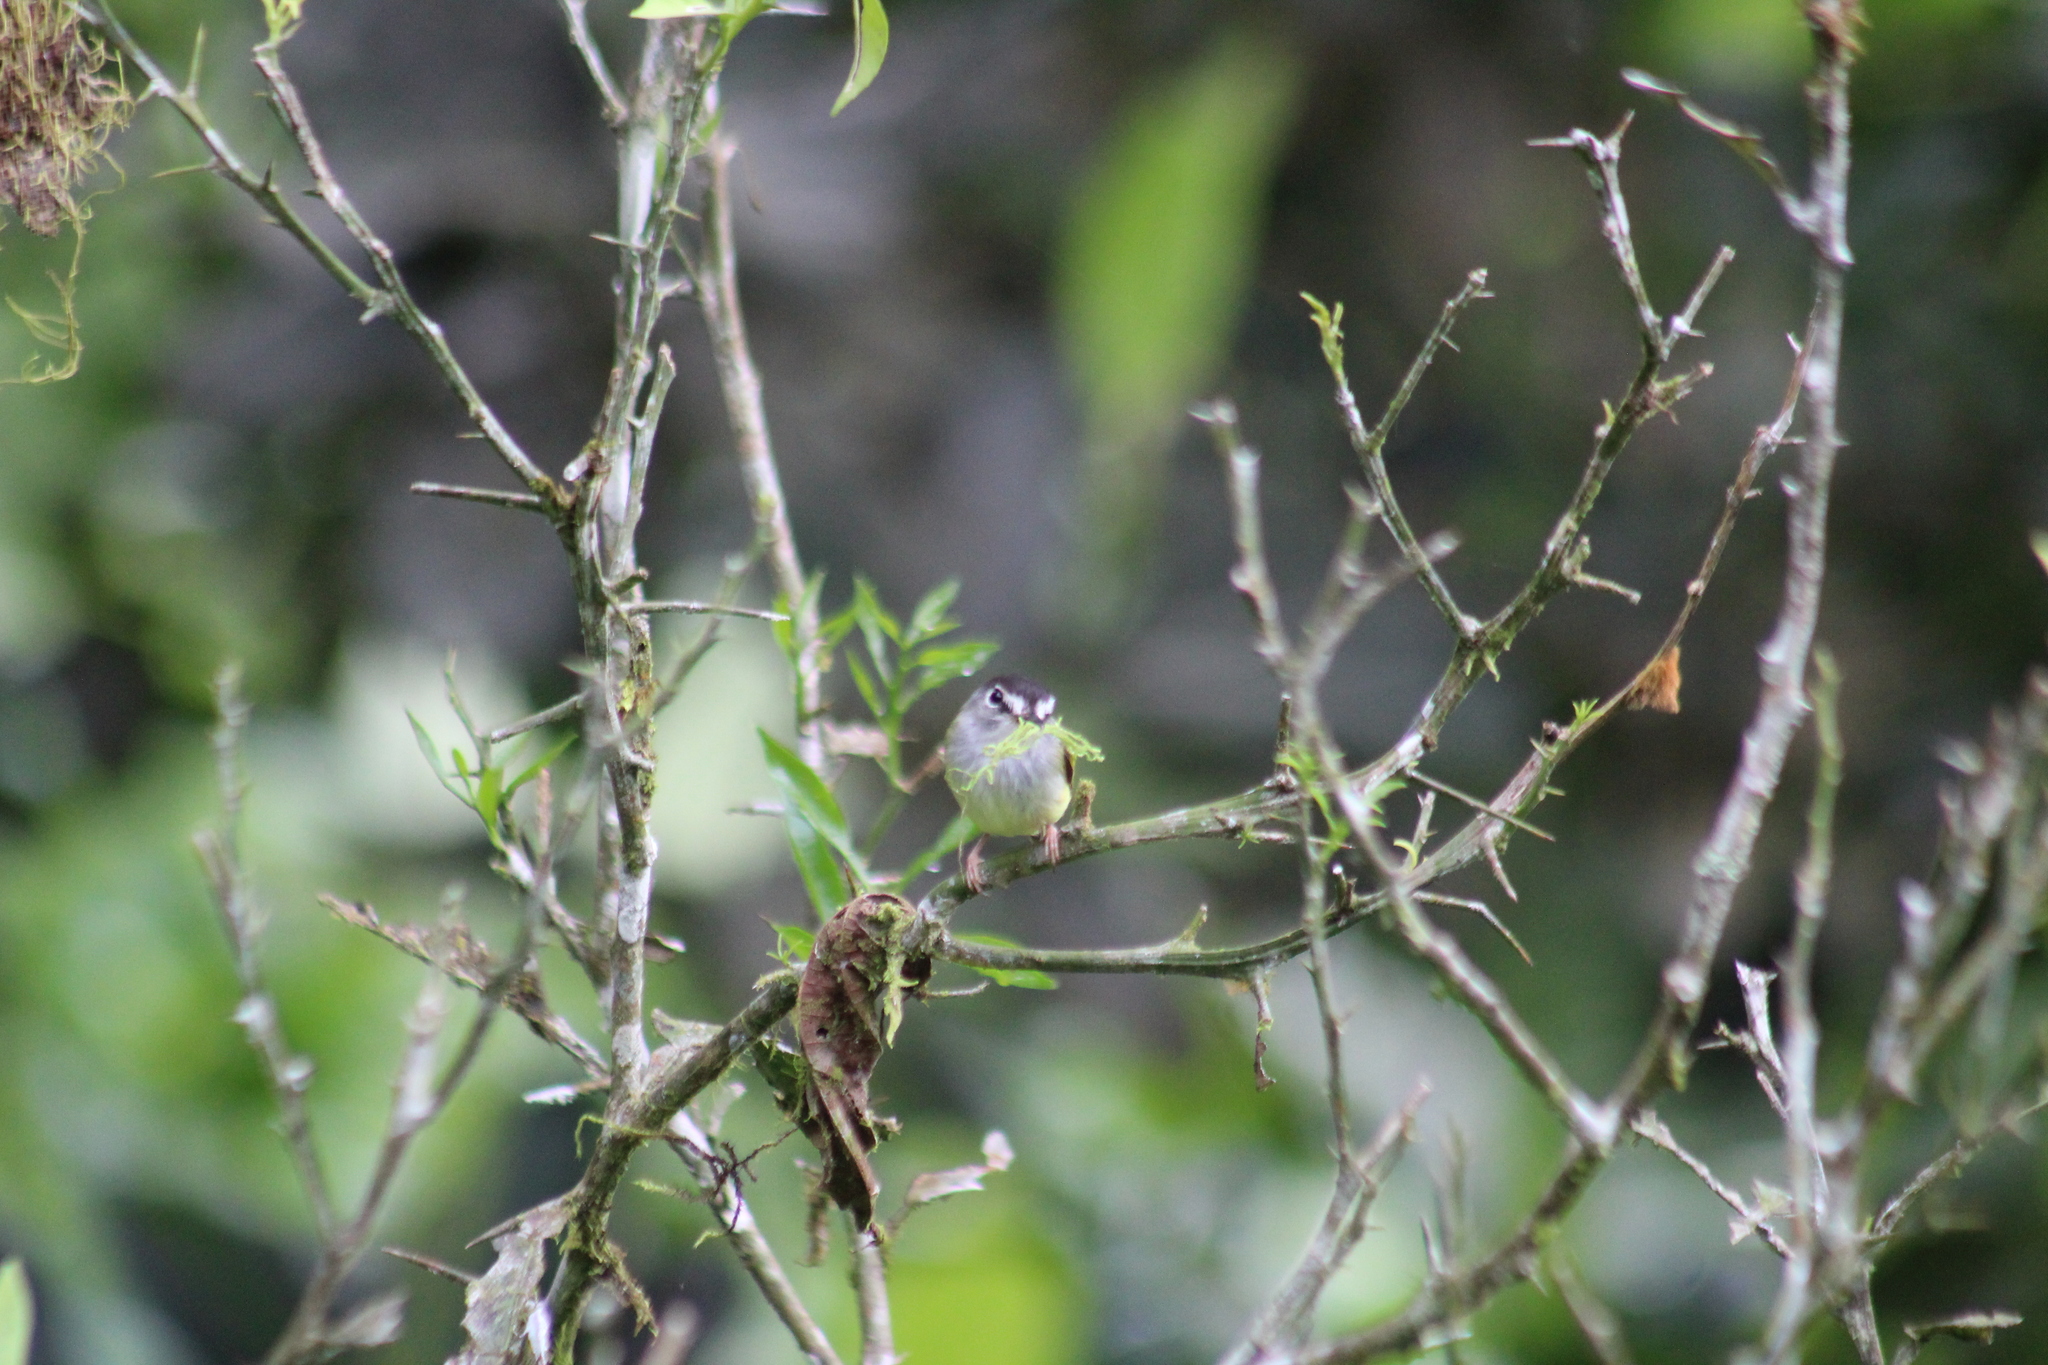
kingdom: Animalia
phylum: Chordata
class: Aves
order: Passeriformes
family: Tyrannidae
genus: Myiornis
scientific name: Myiornis atricapillus
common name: Black-capped pygmy-tyrant
